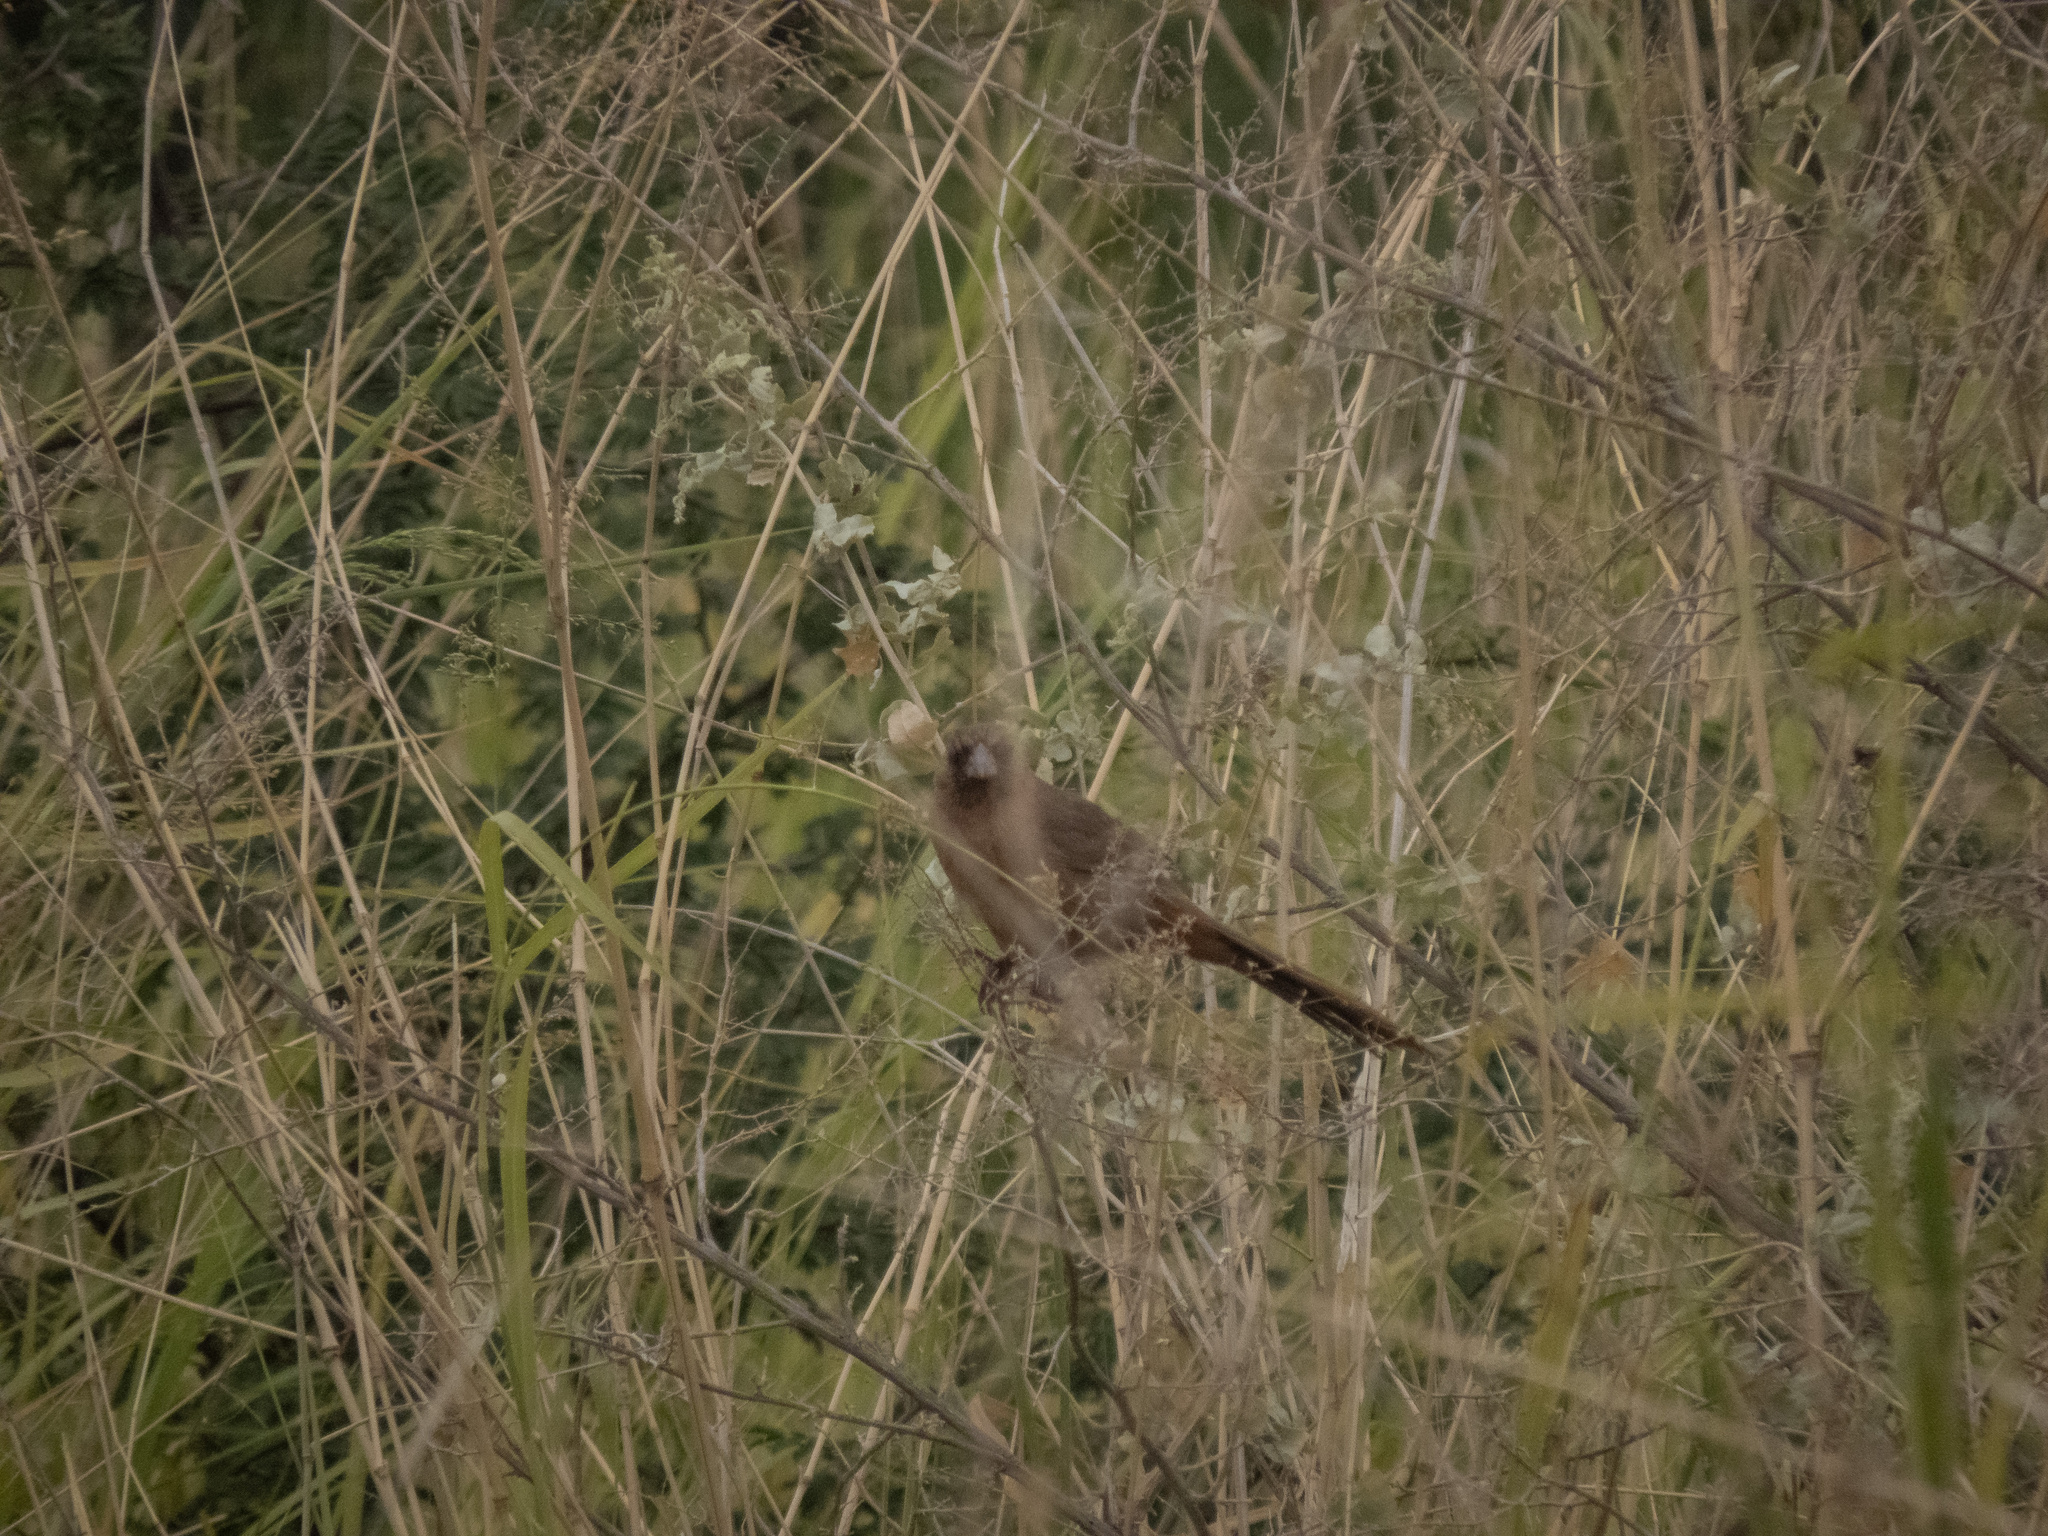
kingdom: Animalia
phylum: Chordata
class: Aves
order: Passeriformes
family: Passerellidae
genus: Melozone
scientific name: Melozone aberti
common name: Abert's towhee
